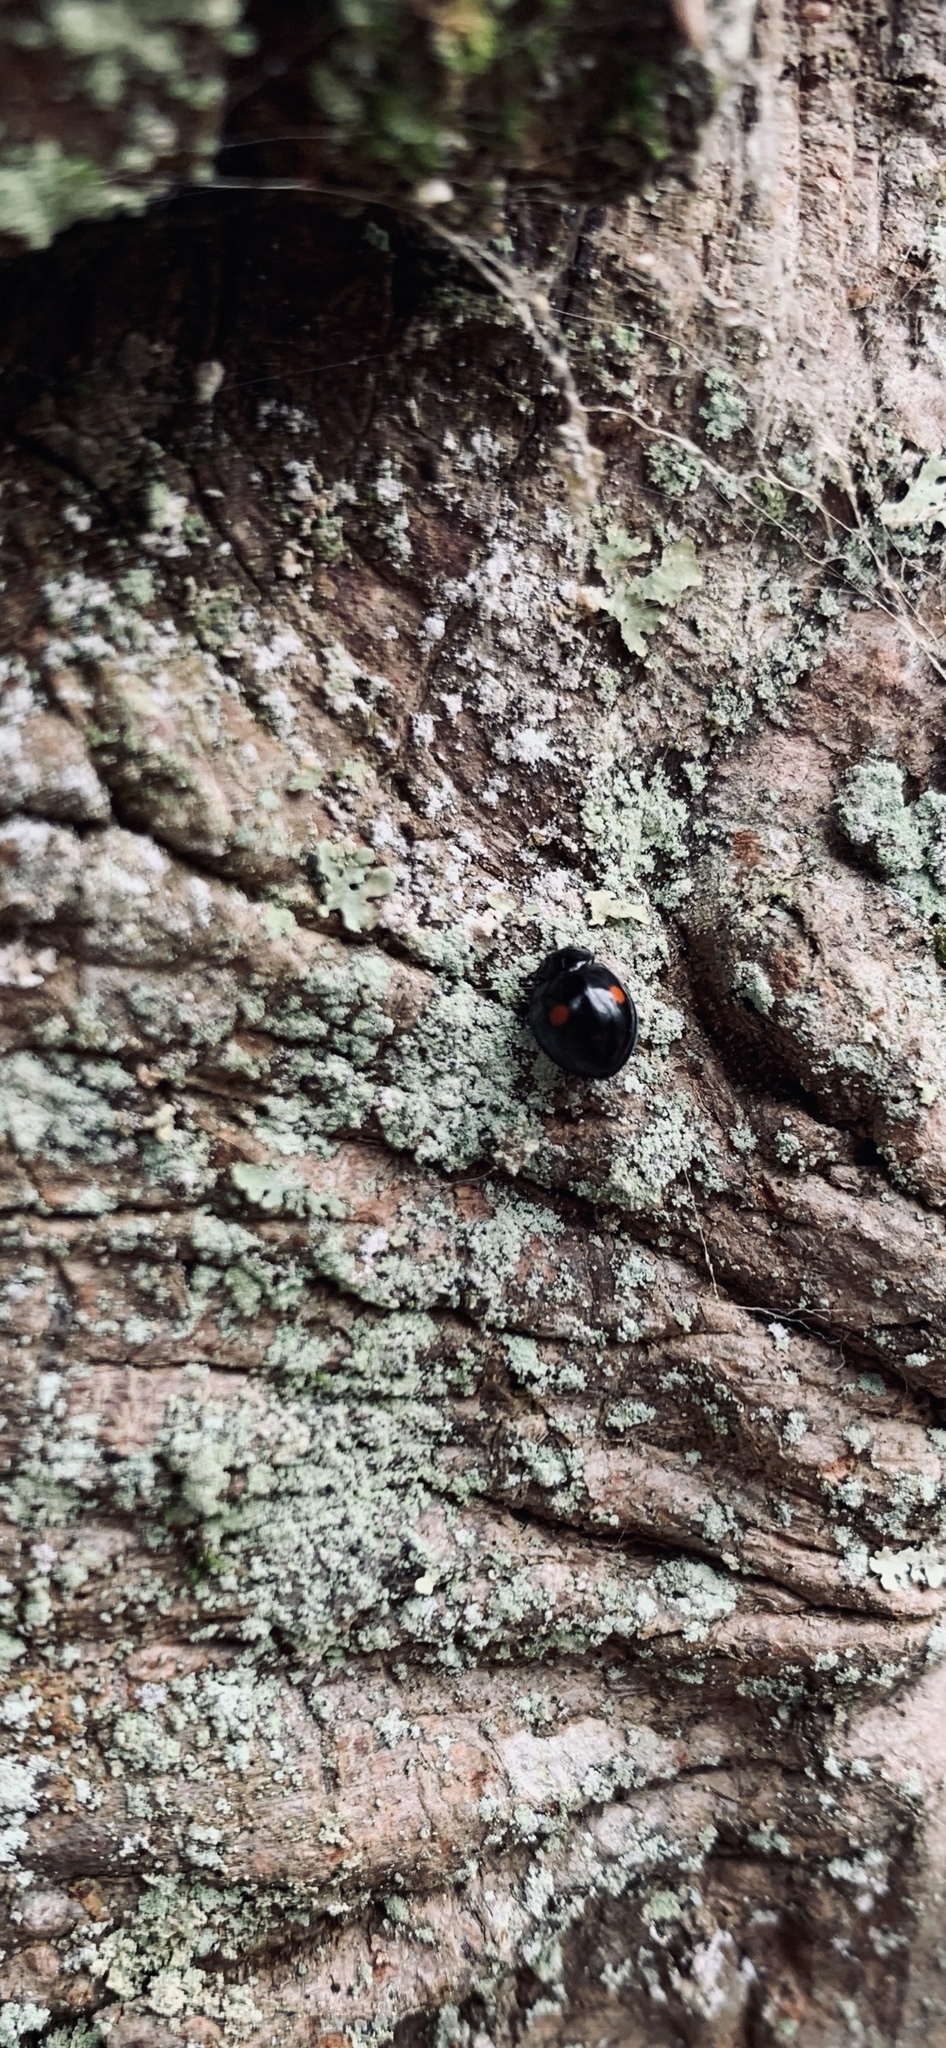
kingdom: Animalia
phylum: Arthropoda
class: Insecta
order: Coleoptera
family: Coccinellidae
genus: Chilocorus
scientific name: Chilocorus stigma
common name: Twicestabbed lady beetle
